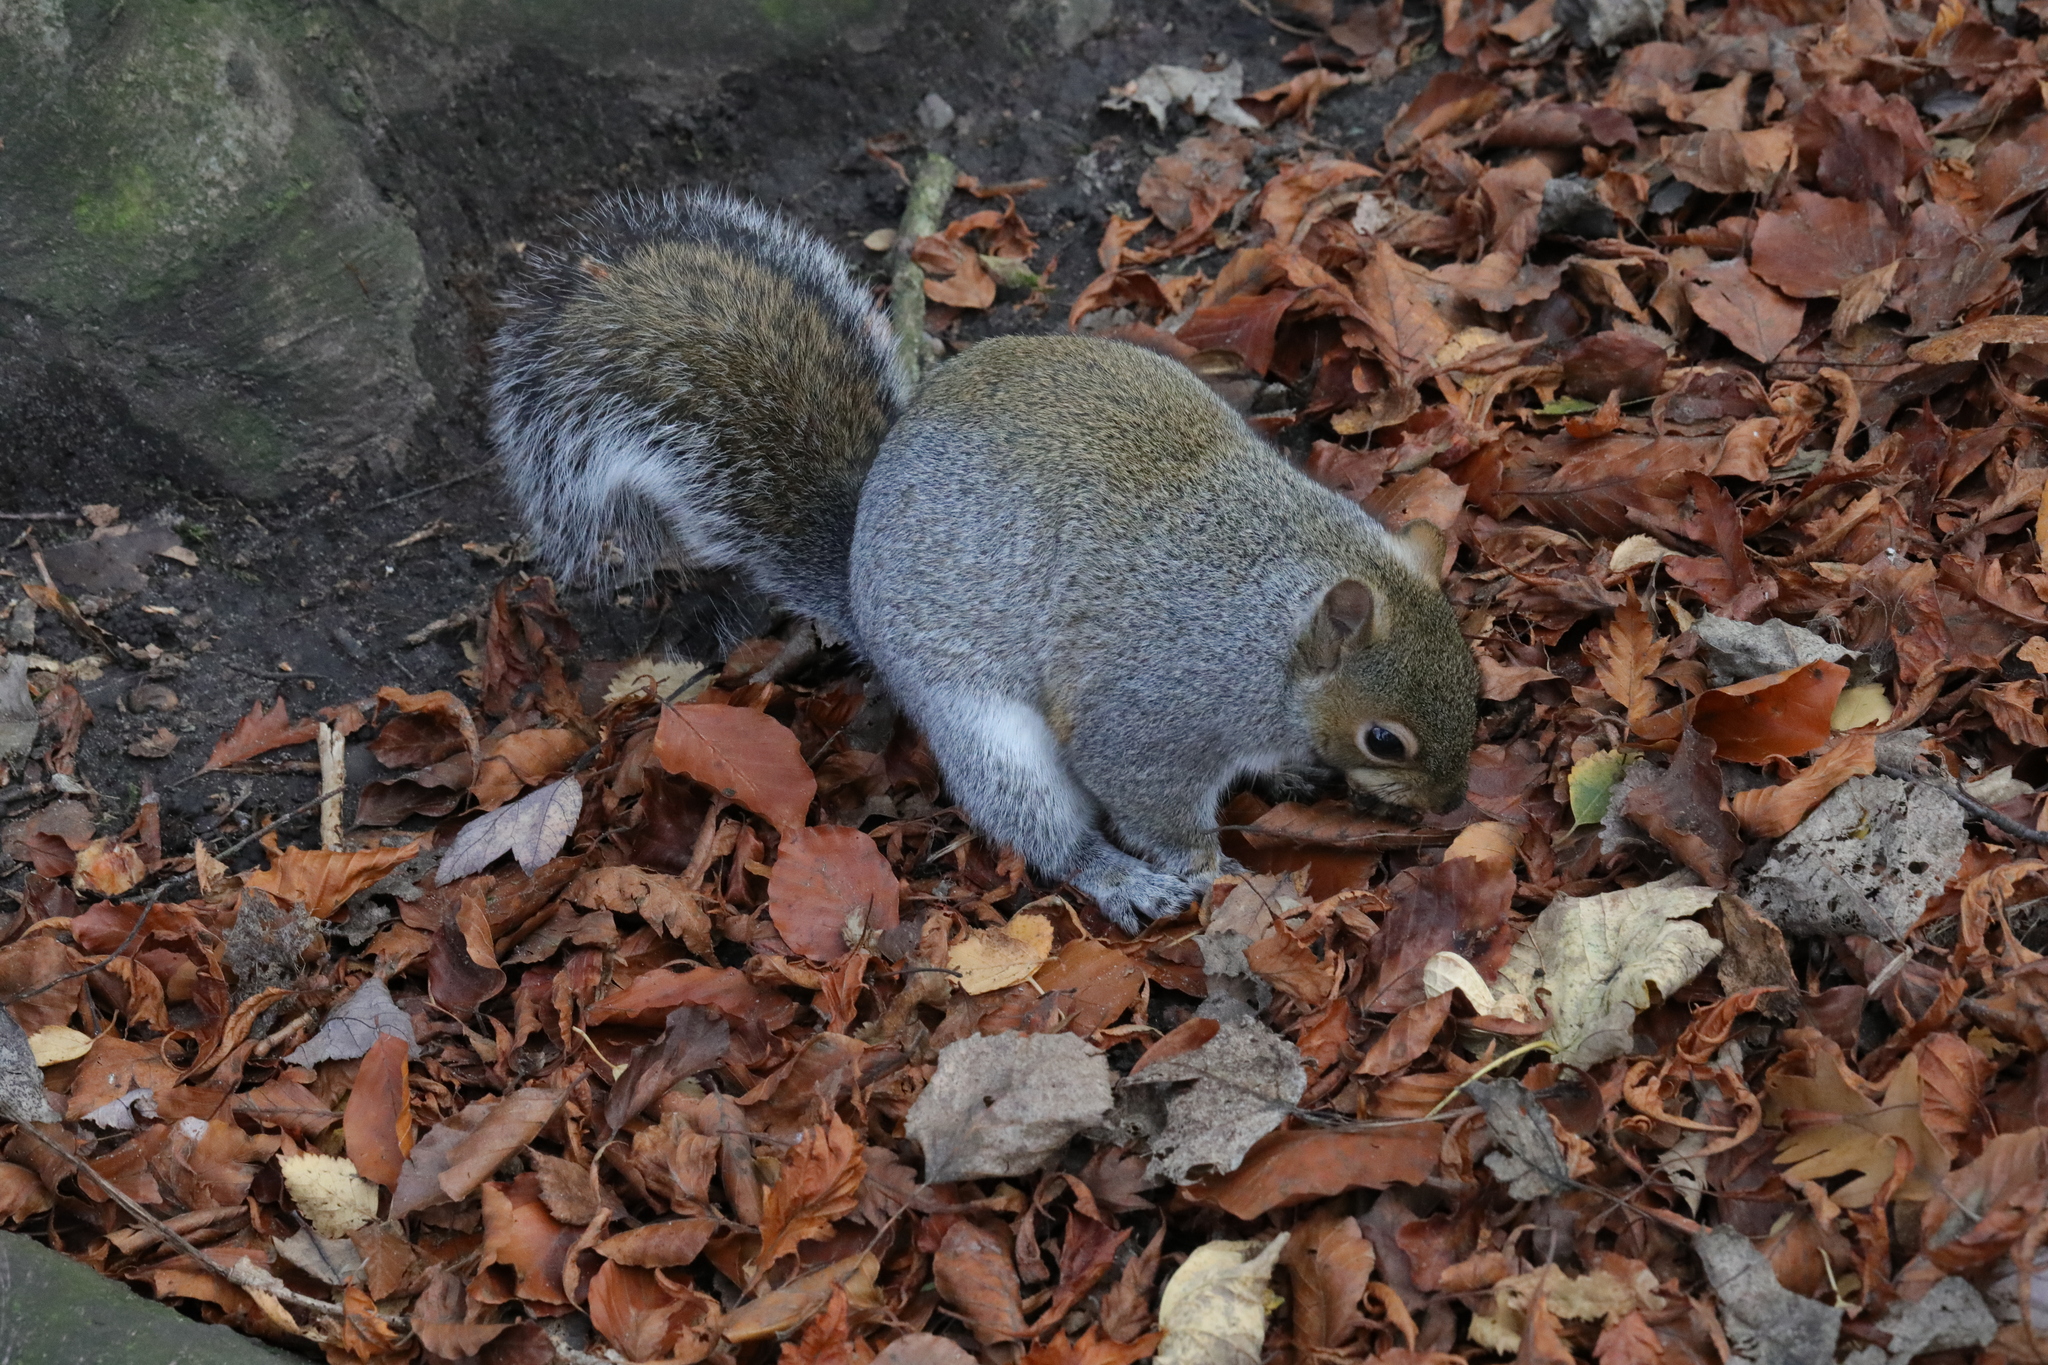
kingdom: Animalia
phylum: Chordata
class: Mammalia
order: Rodentia
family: Sciuridae
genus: Sciurus
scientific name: Sciurus carolinensis
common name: Eastern gray squirrel
